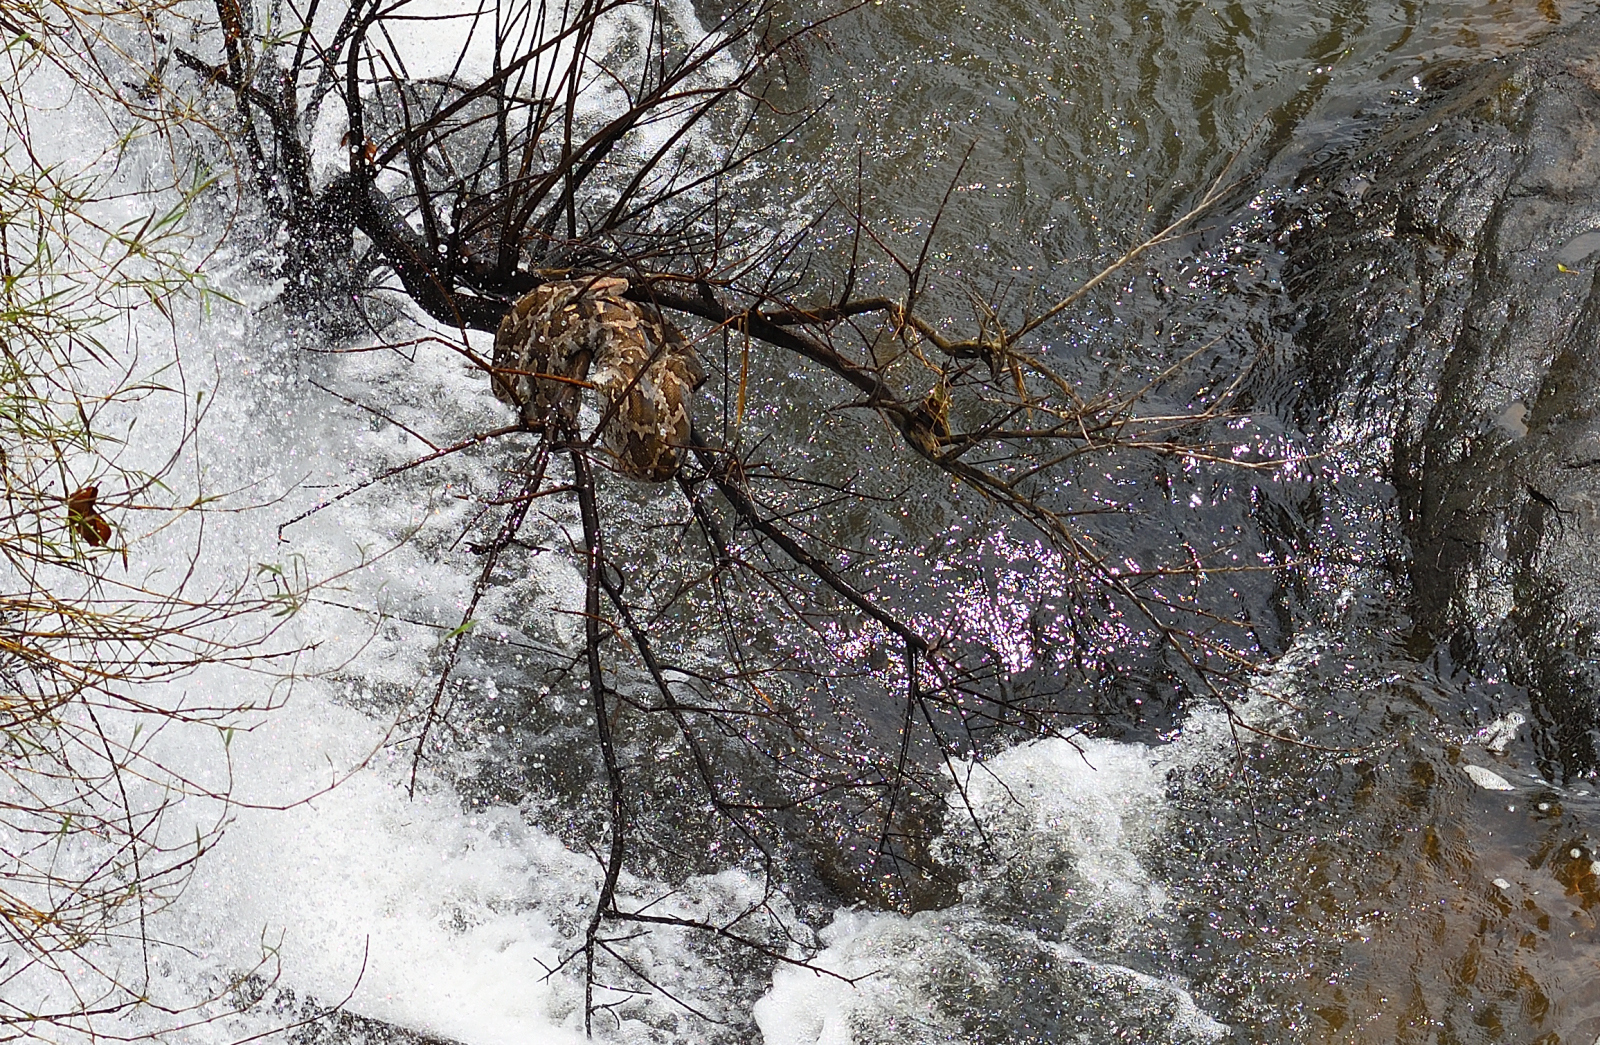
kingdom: Animalia
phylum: Chordata
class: Squamata
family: Pythonidae
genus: Python
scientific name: Python molurus
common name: Indian rock python
